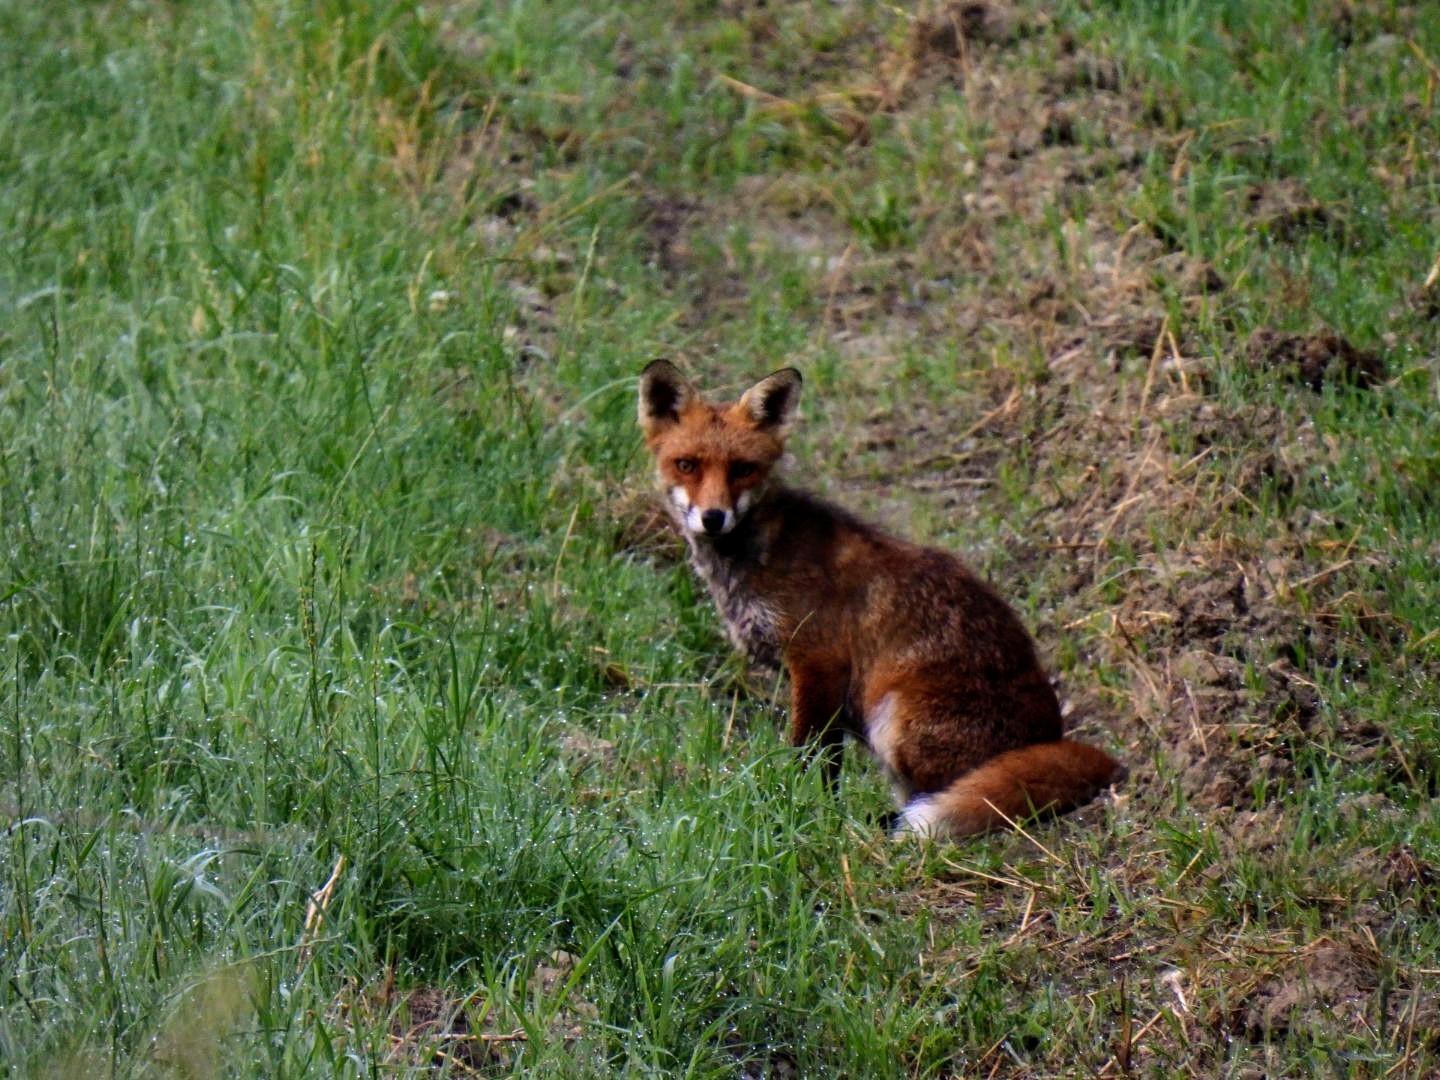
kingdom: Animalia
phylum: Chordata
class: Mammalia
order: Carnivora
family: Canidae
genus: Vulpes
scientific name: Vulpes vulpes
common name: Red fox
